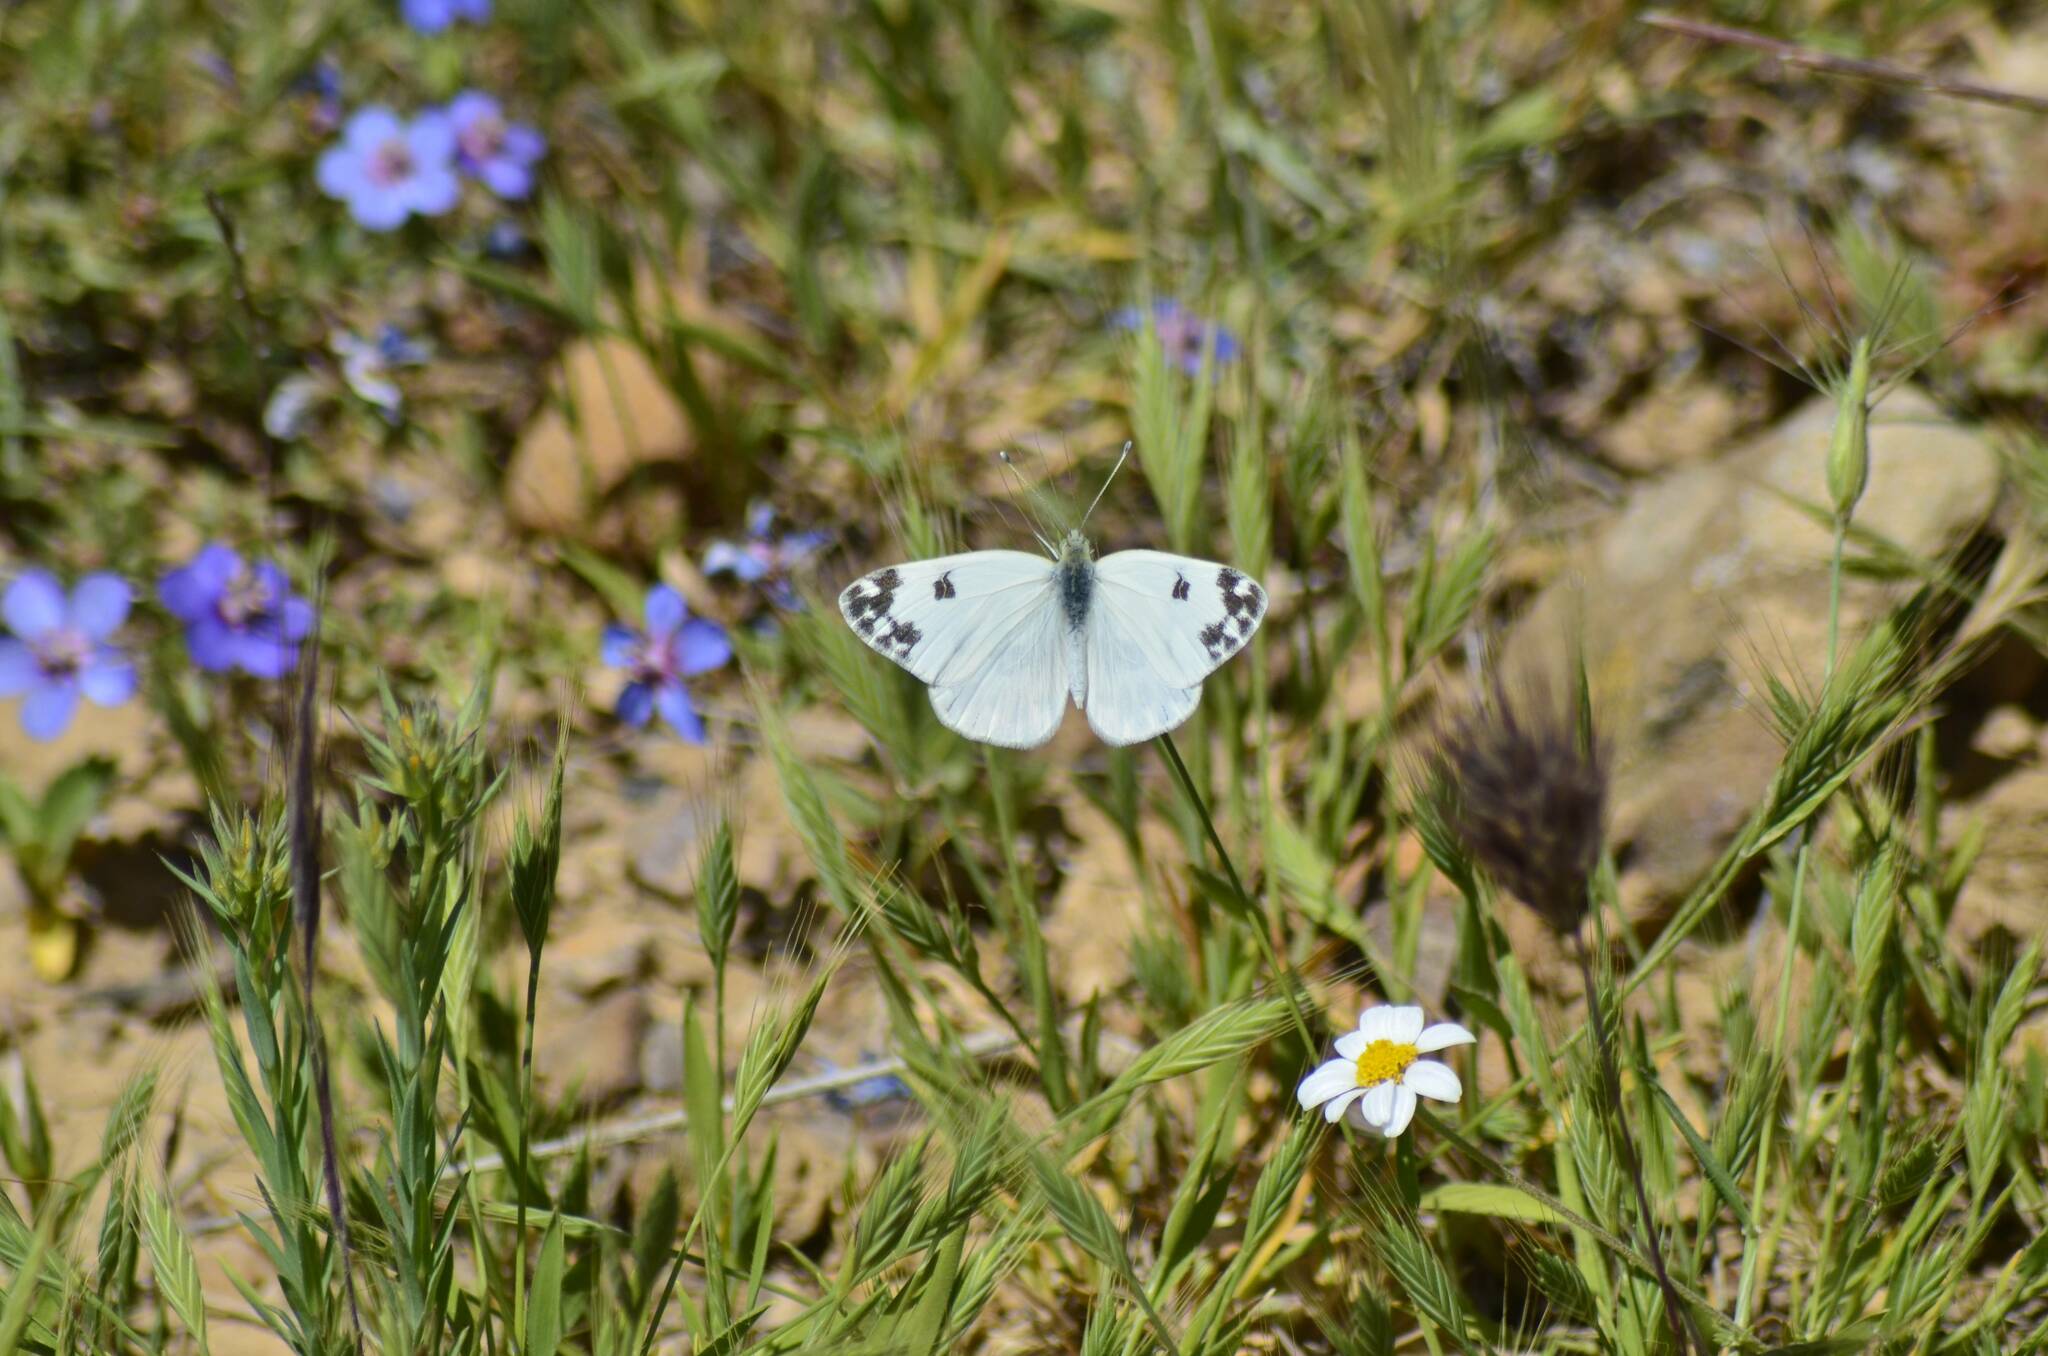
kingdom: Animalia
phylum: Arthropoda
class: Insecta
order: Lepidoptera
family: Pieridae
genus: Pontia
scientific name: Pontia daplidice
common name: Bath white
